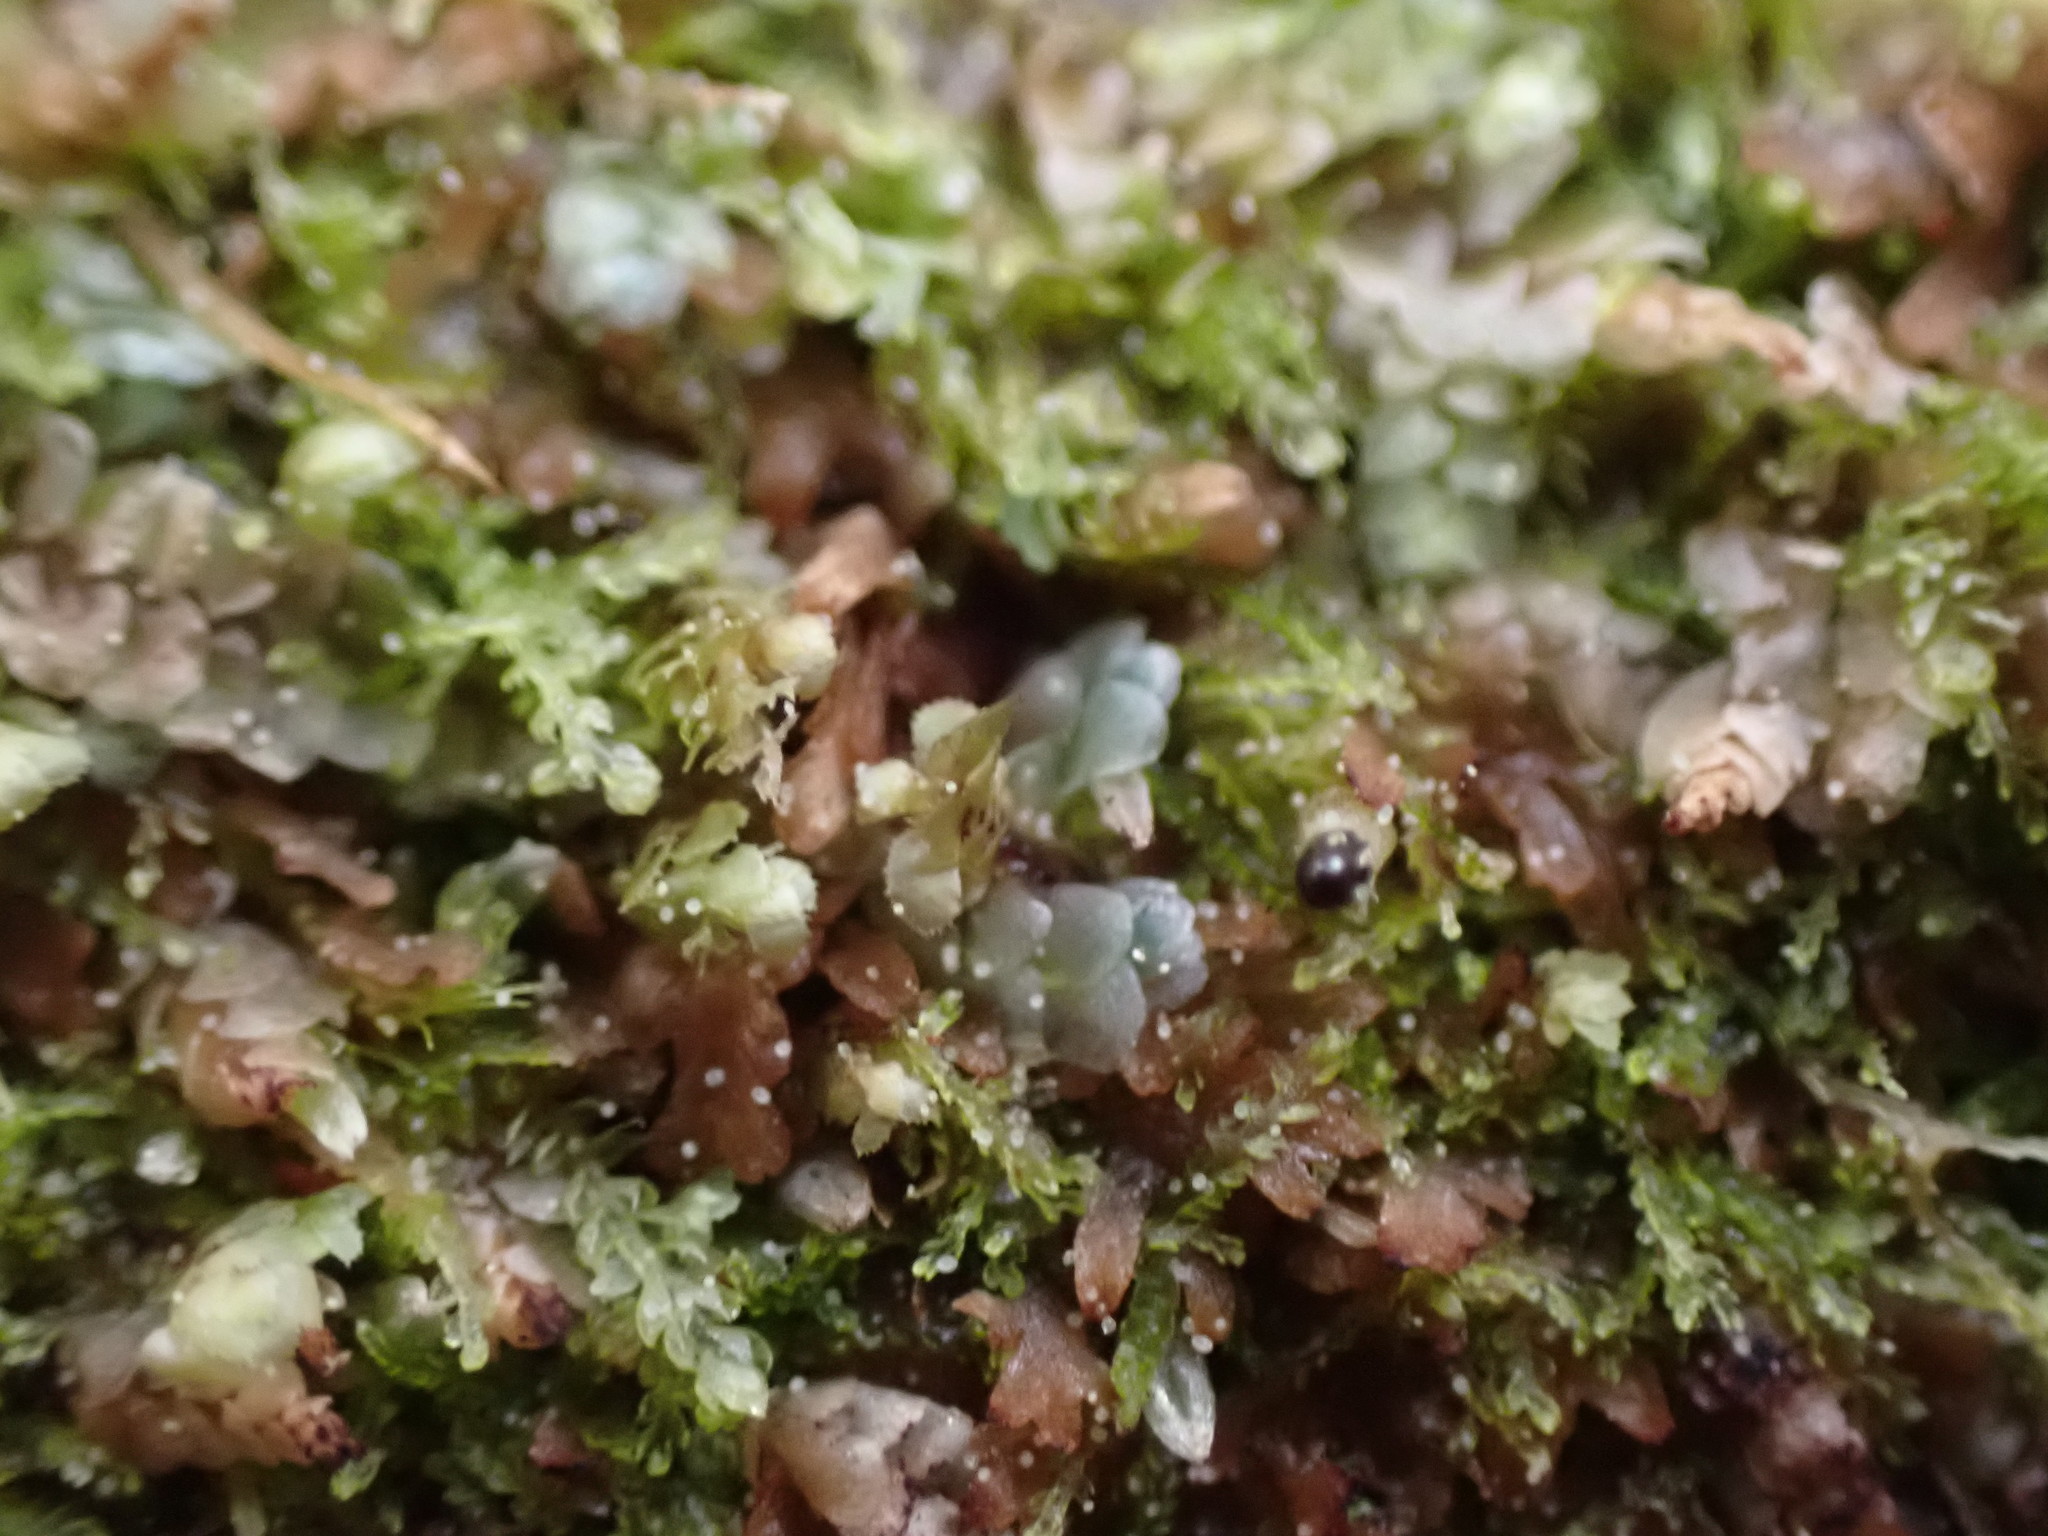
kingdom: Plantae
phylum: Marchantiophyta
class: Jungermanniopsida
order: Jungermanniales
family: Calypogeiaceae
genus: Calypogeia
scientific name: Calypogeia azurea
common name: Blue pouchwort
